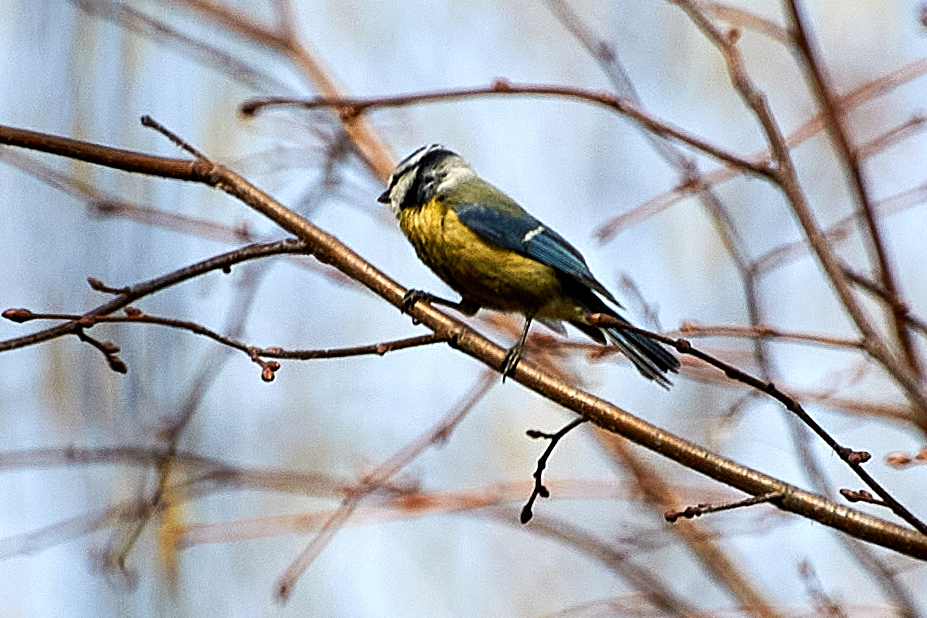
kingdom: Animalia
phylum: Chordata
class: Aves
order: Passeriformes
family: Paridae
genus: Cyanistes
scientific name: Cyanistes caeruleus
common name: Eurasian blue tit
